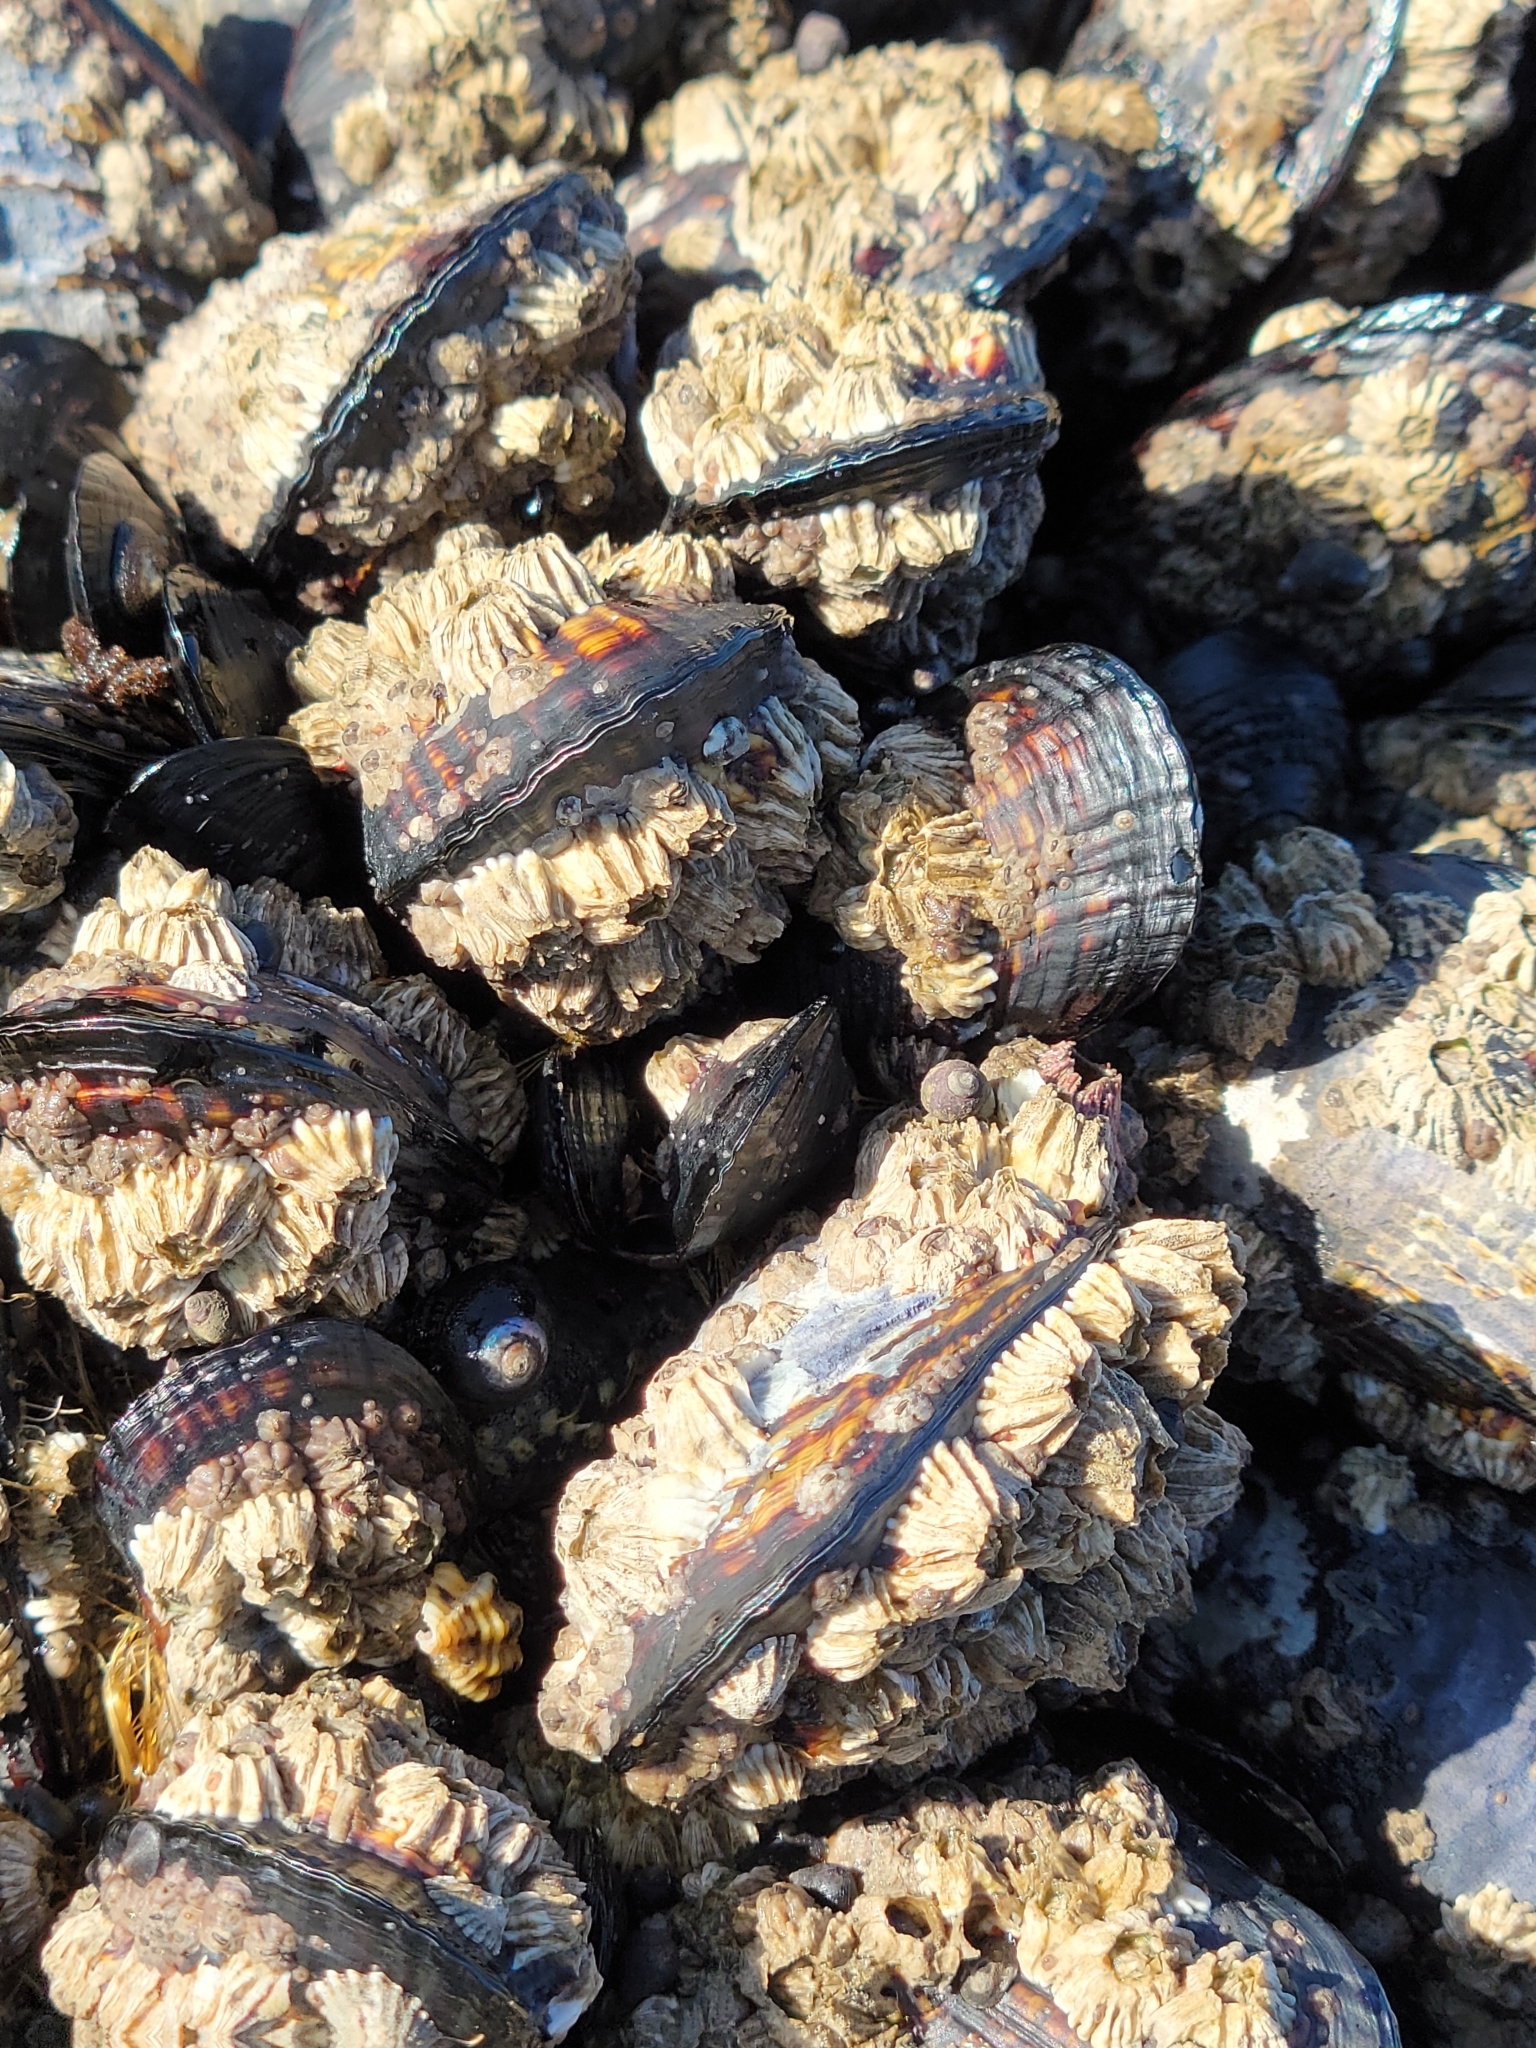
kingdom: Animalia
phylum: Mollusca
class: Bivalvia
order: Mytilida
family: Mytilidae
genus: Mytilus
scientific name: Mytilus californianus
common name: California mussel
